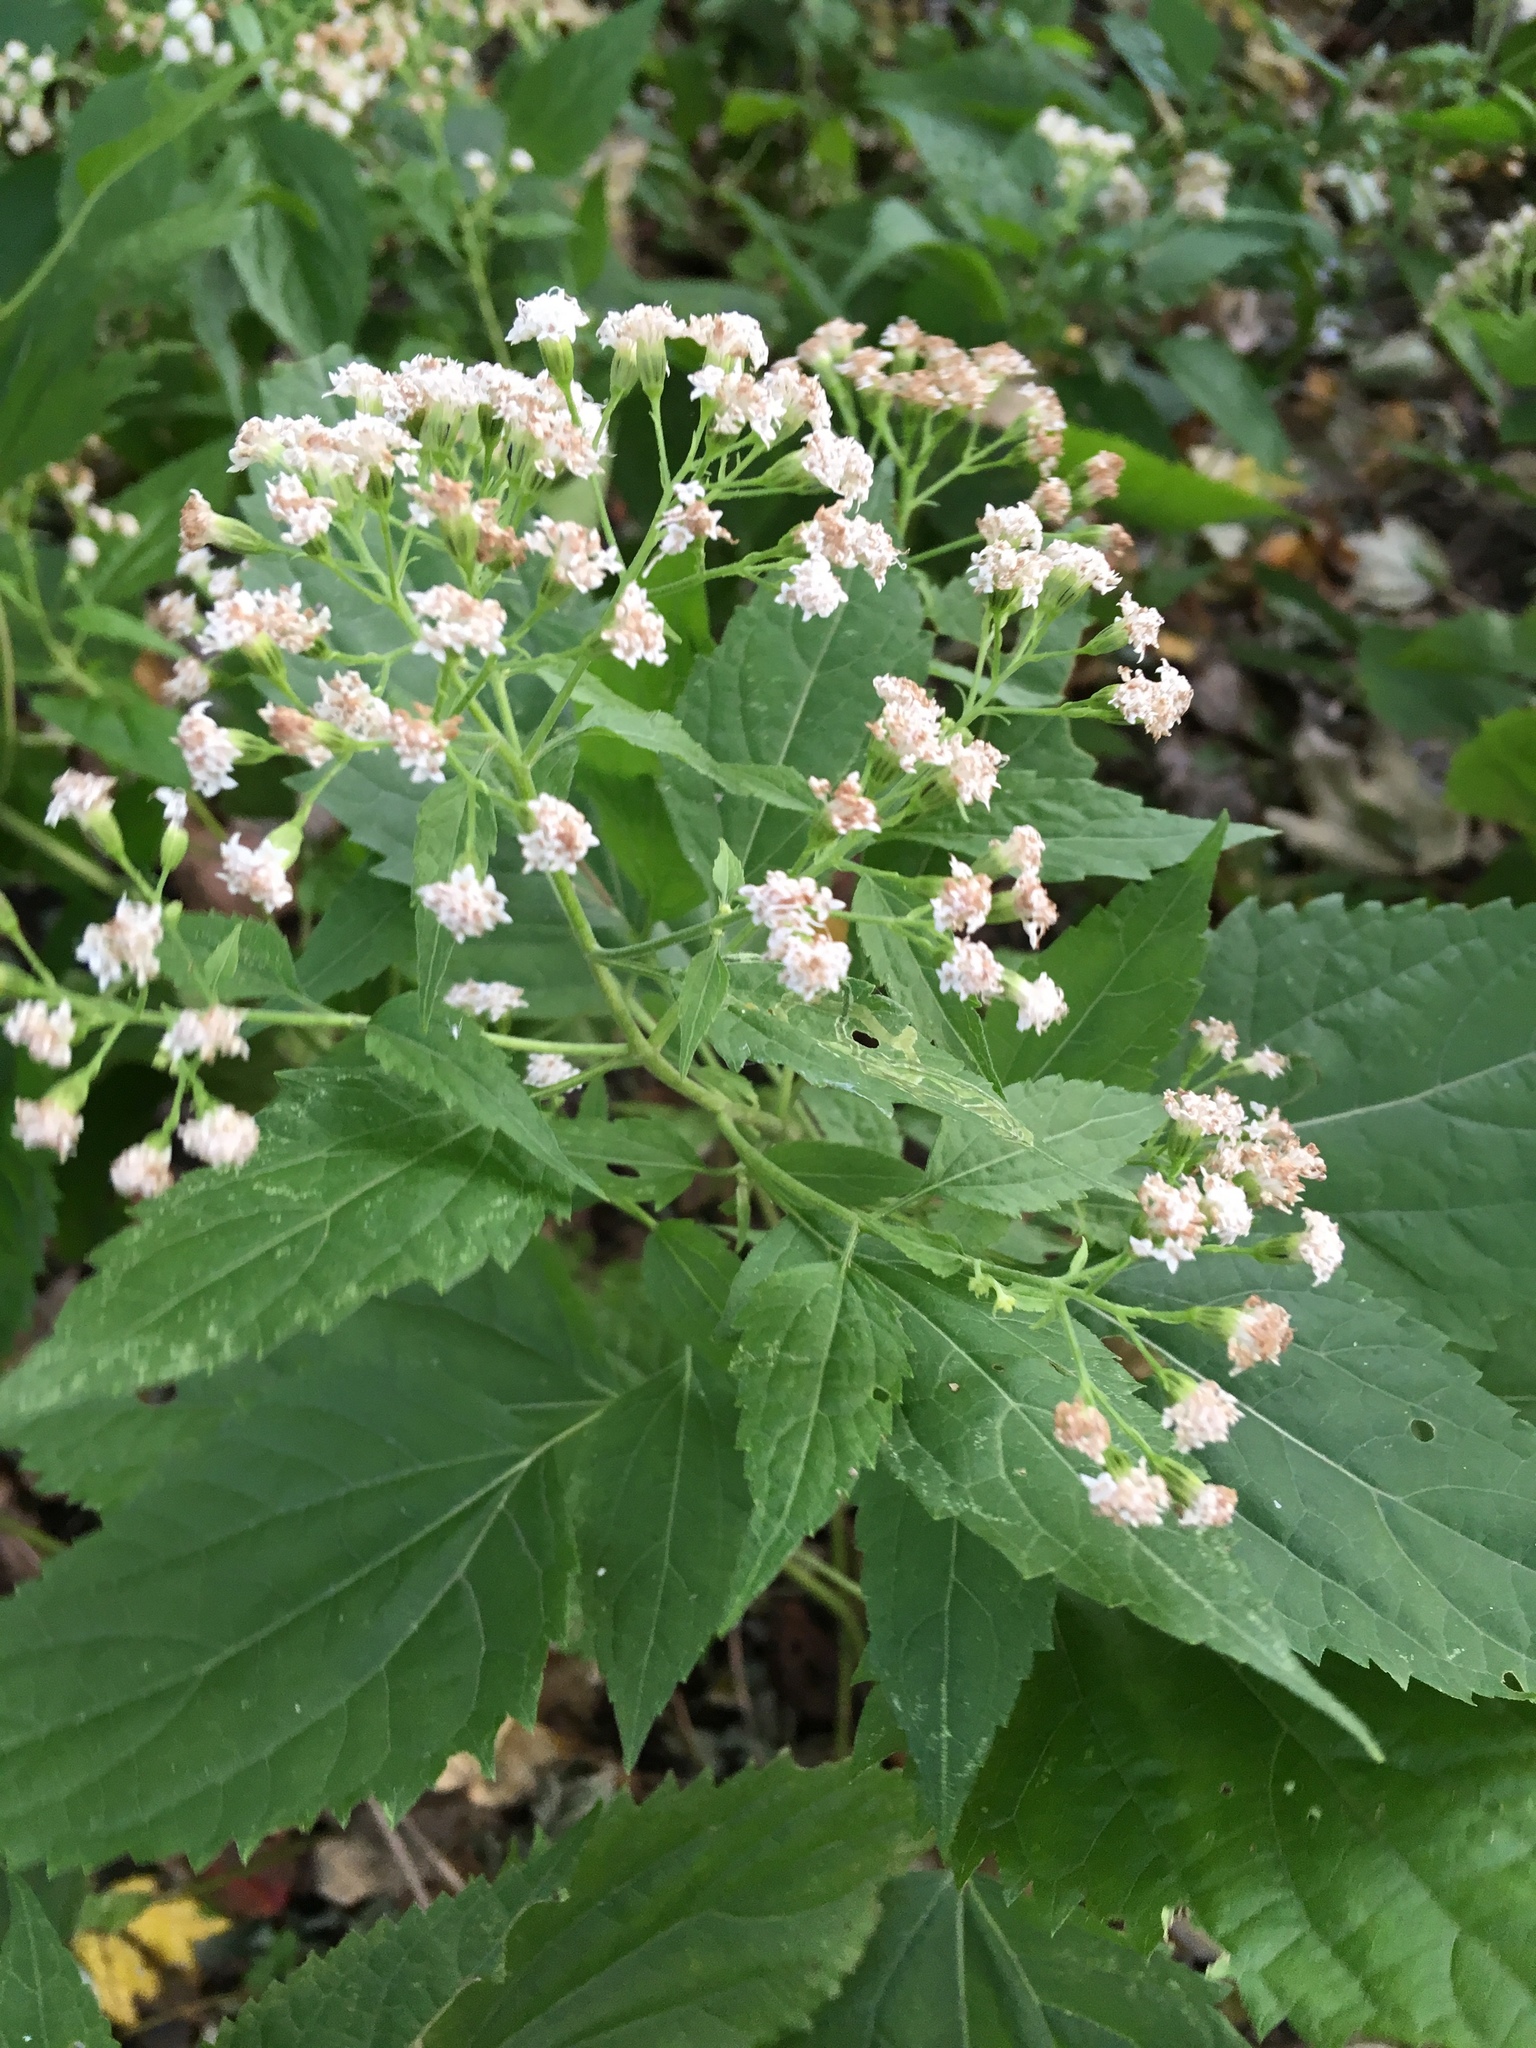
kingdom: Plantae
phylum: Tracheophyta
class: Magnoliopsida
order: Asterales
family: Asteraceae
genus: Ageratina
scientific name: Ageratina altissima
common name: White snakeroot
